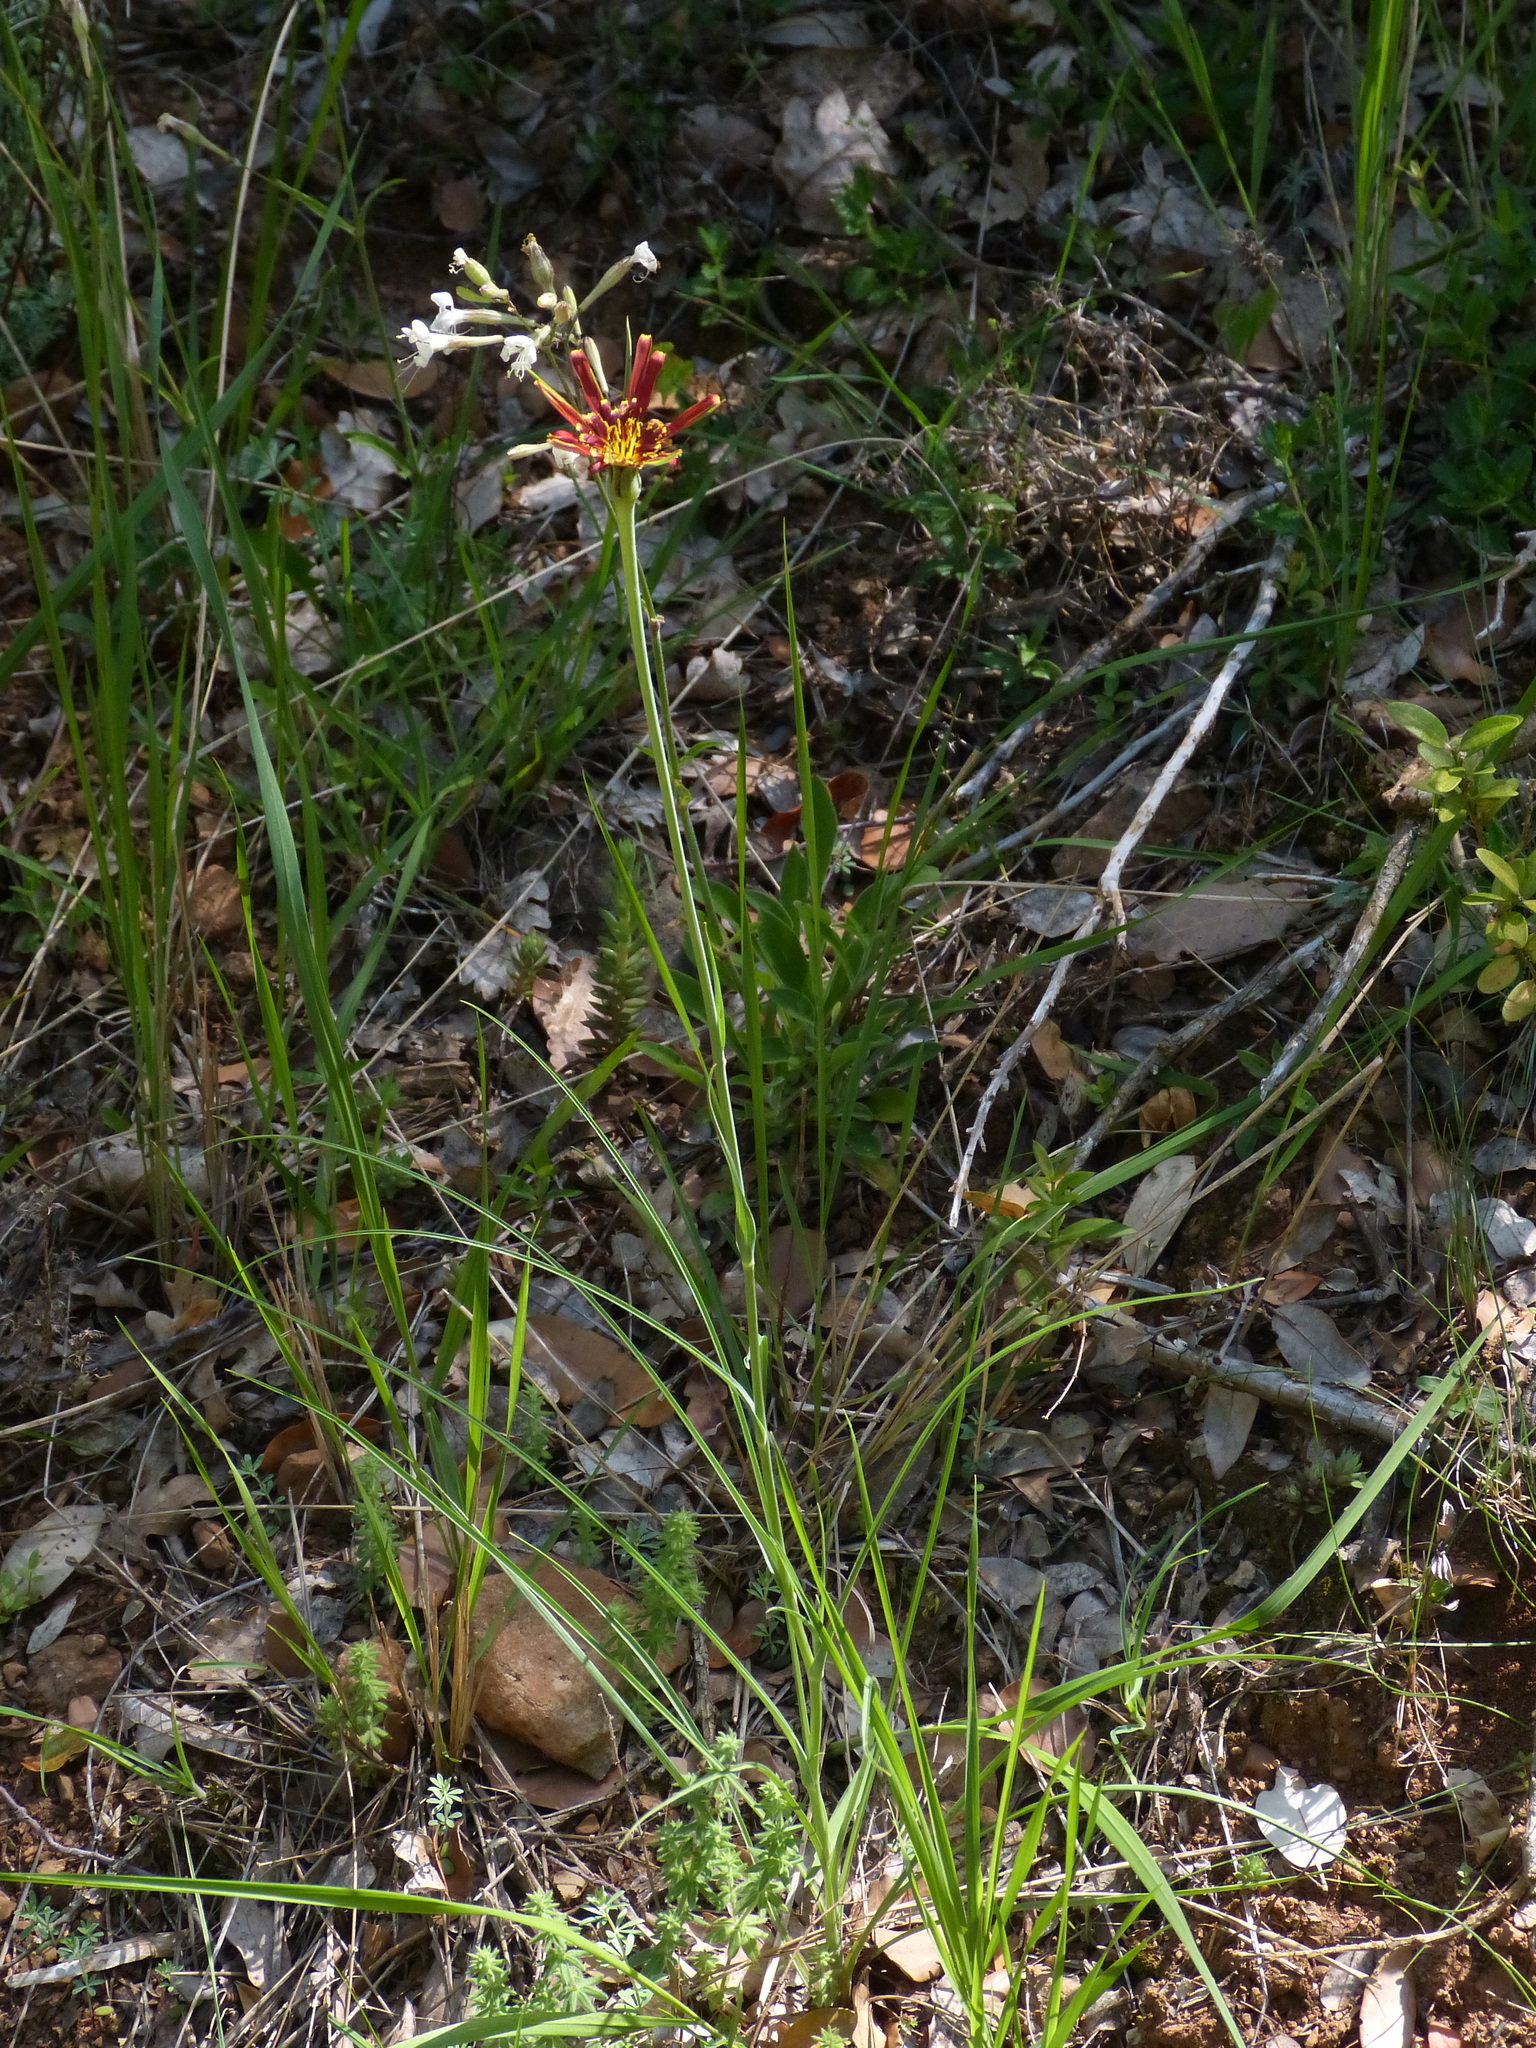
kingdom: Plantae
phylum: Tracheophyta
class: Magnoliopsida
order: Asterales
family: Asteraceae
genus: Tragopogon
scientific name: Tragopogon crocifolius
